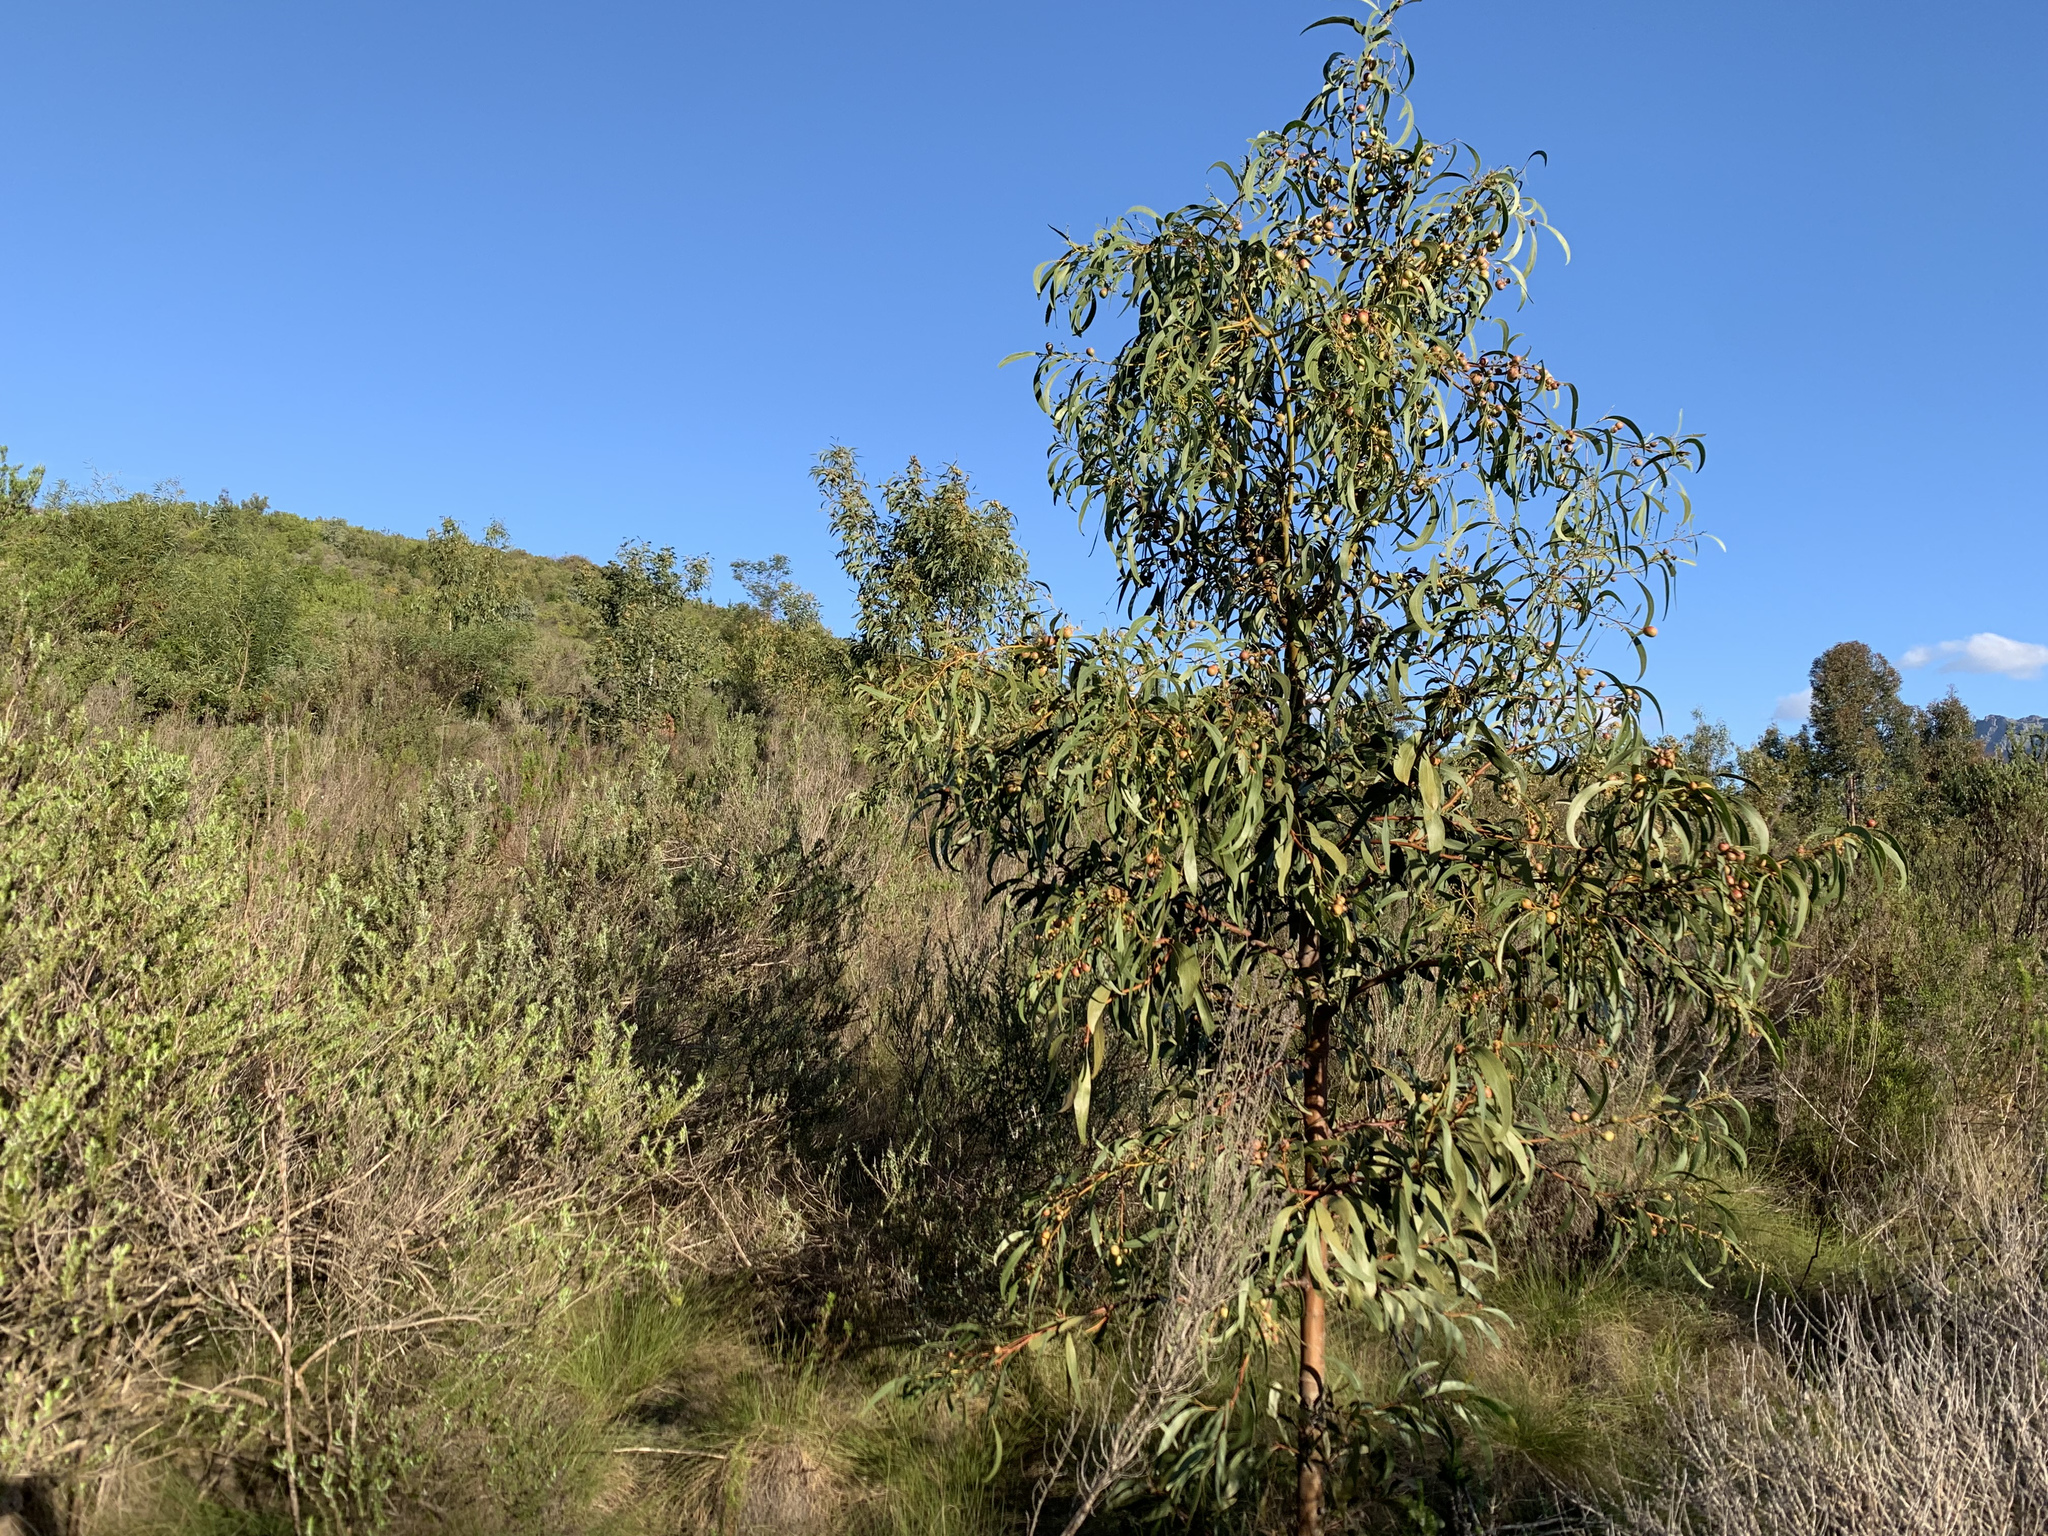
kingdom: Plantae
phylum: Tracheophyta
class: Magnoliopsida
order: Fabales
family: Fabaceae
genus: Acacia
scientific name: Acacia pycnantha
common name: Golden wattle
